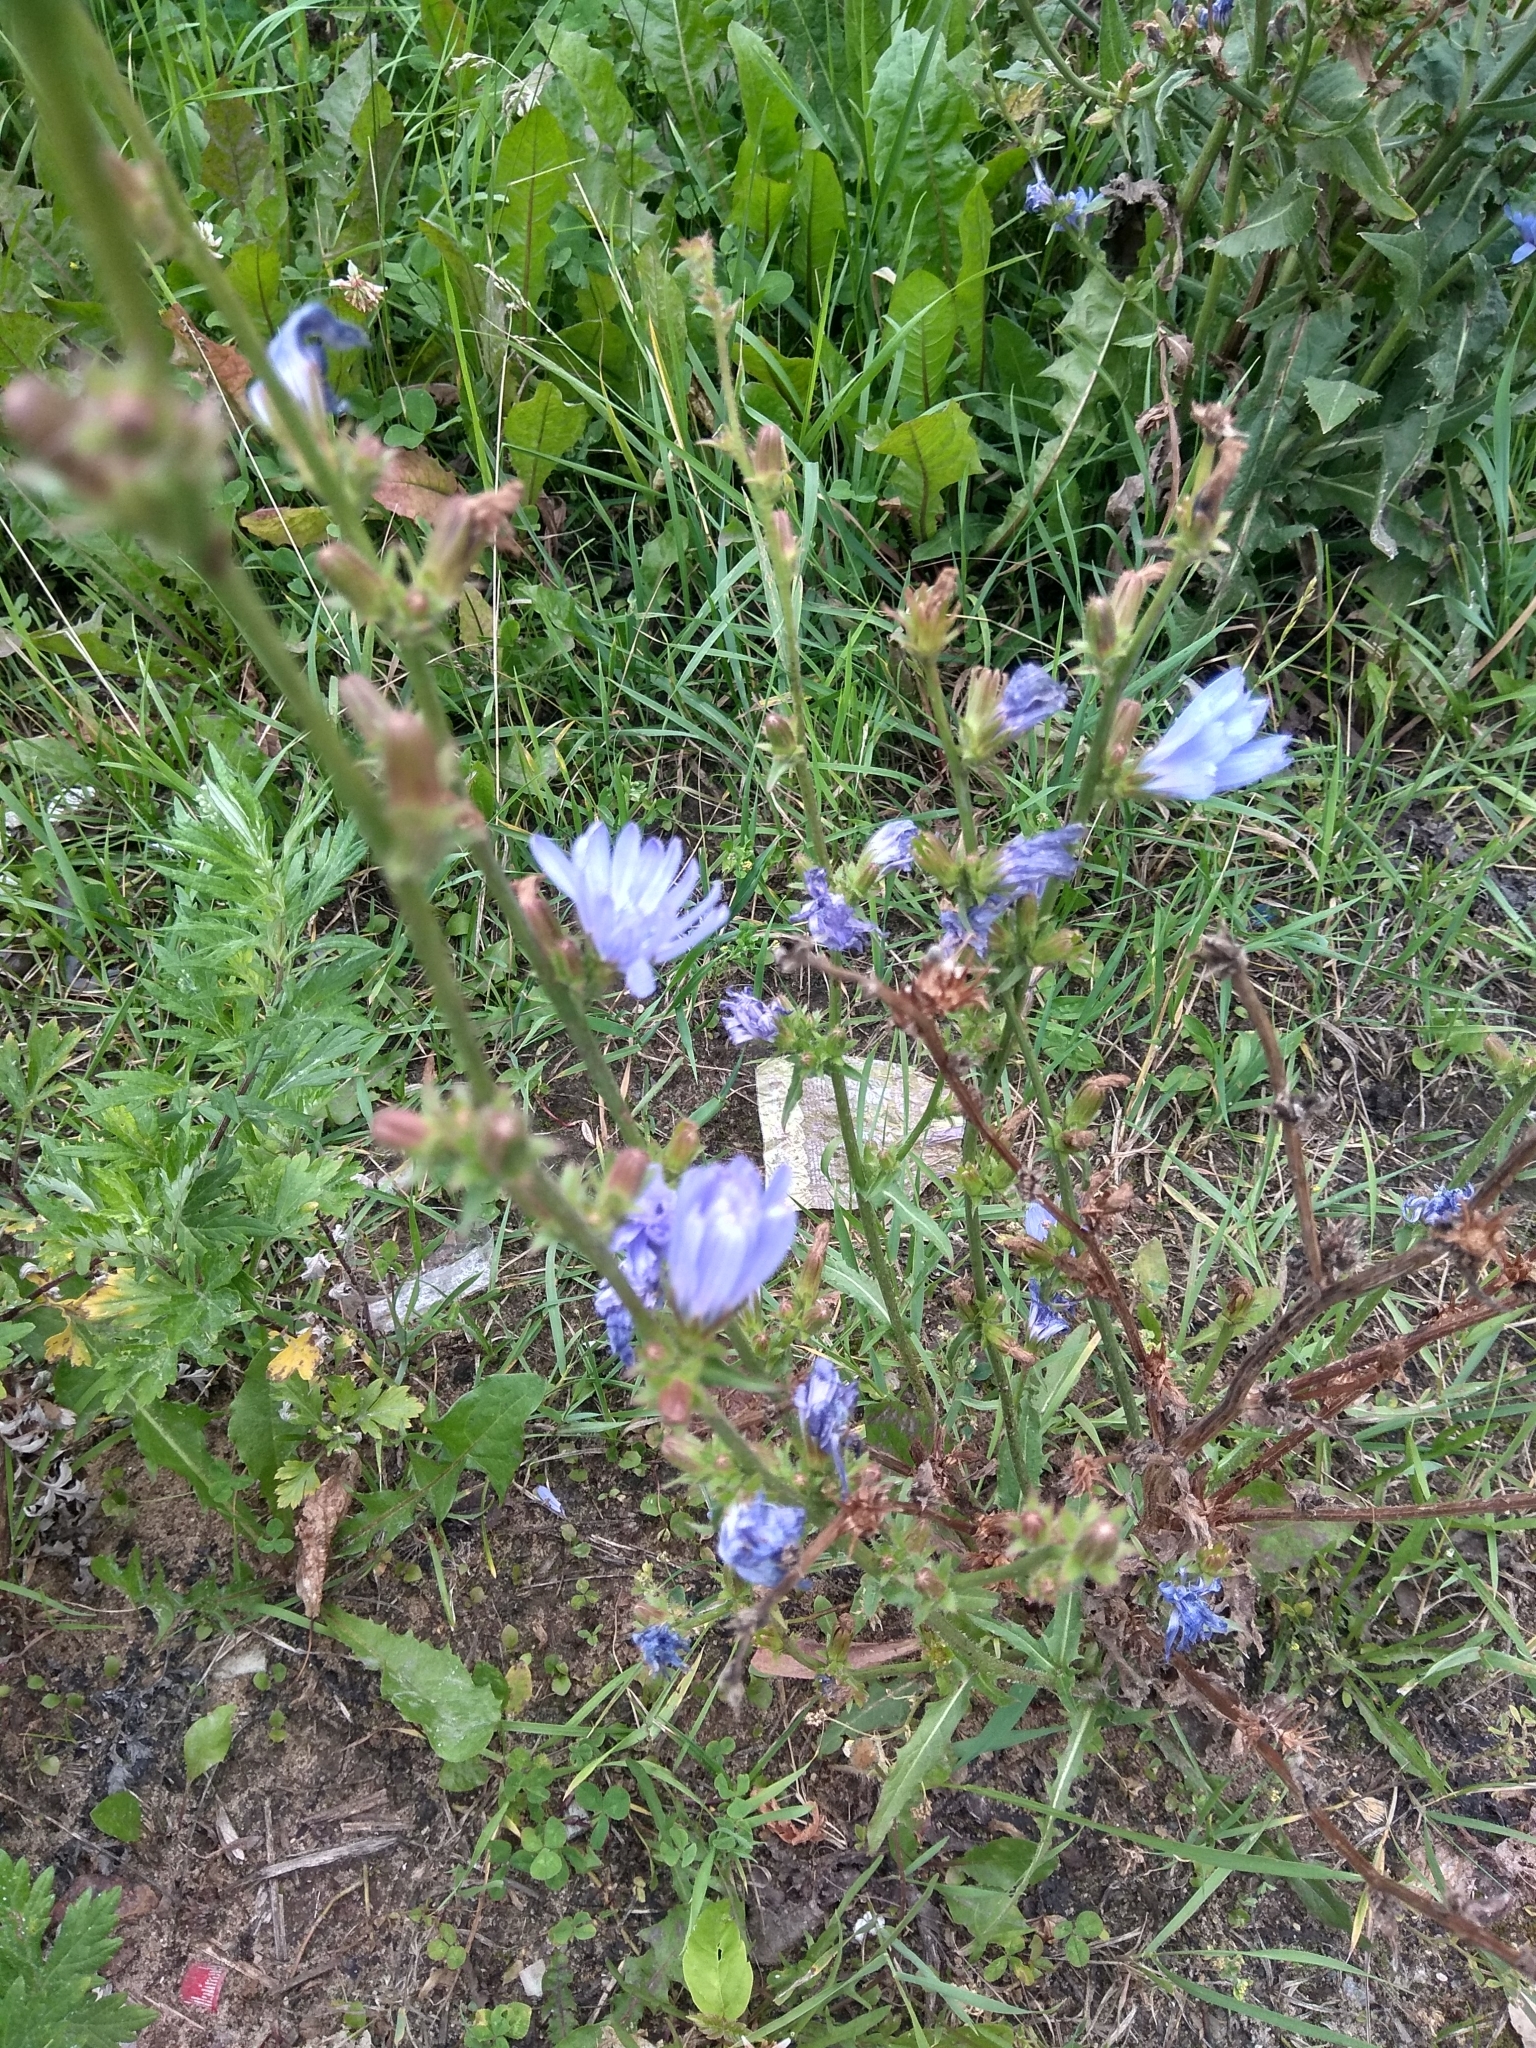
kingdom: Plantae
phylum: Tracheophyta
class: Magnoliopsida
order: Asterales
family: Asteraceae
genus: Cichorium
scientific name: Cichorium intybus
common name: Chicory
